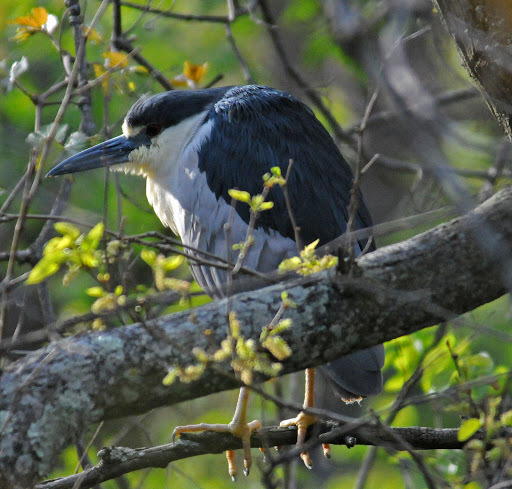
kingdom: Animalia
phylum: Chordata
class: Aves
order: Pelecaniformes
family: Ardeidae
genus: Nycticorax
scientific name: Nycticorax nycticorax
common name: Black-crowned night heron
